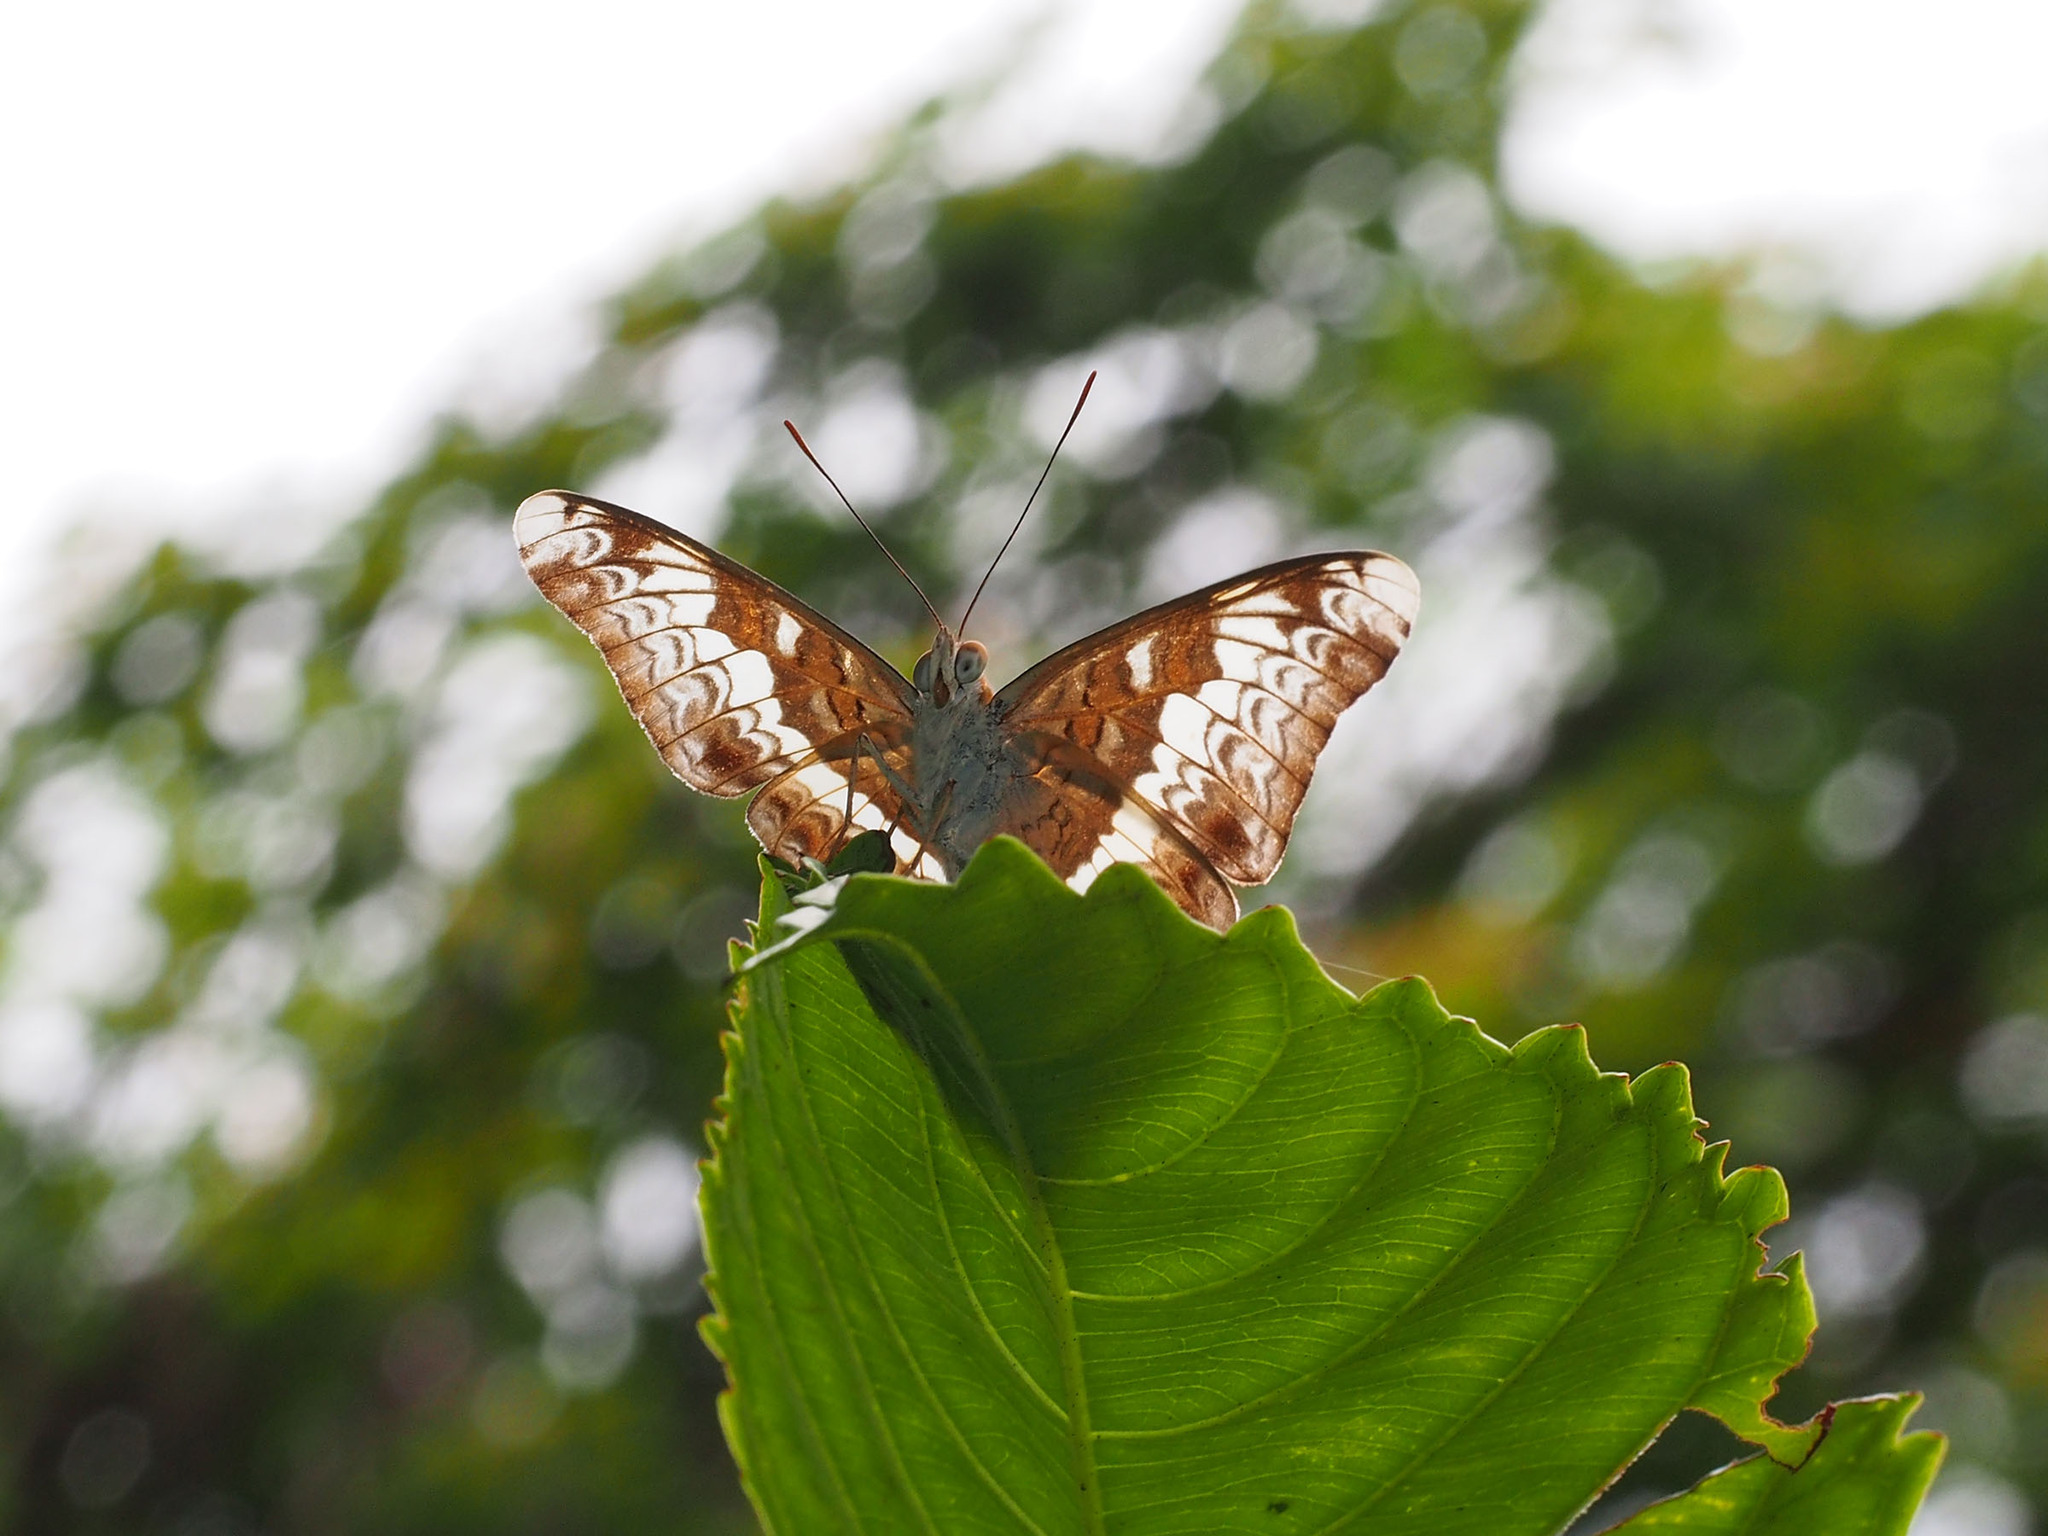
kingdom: Animalia
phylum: Arthropoda
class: Insecta
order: Lepidoptera
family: Nymphalidae
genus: Lebadea
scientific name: Lebadea martha
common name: Knight
